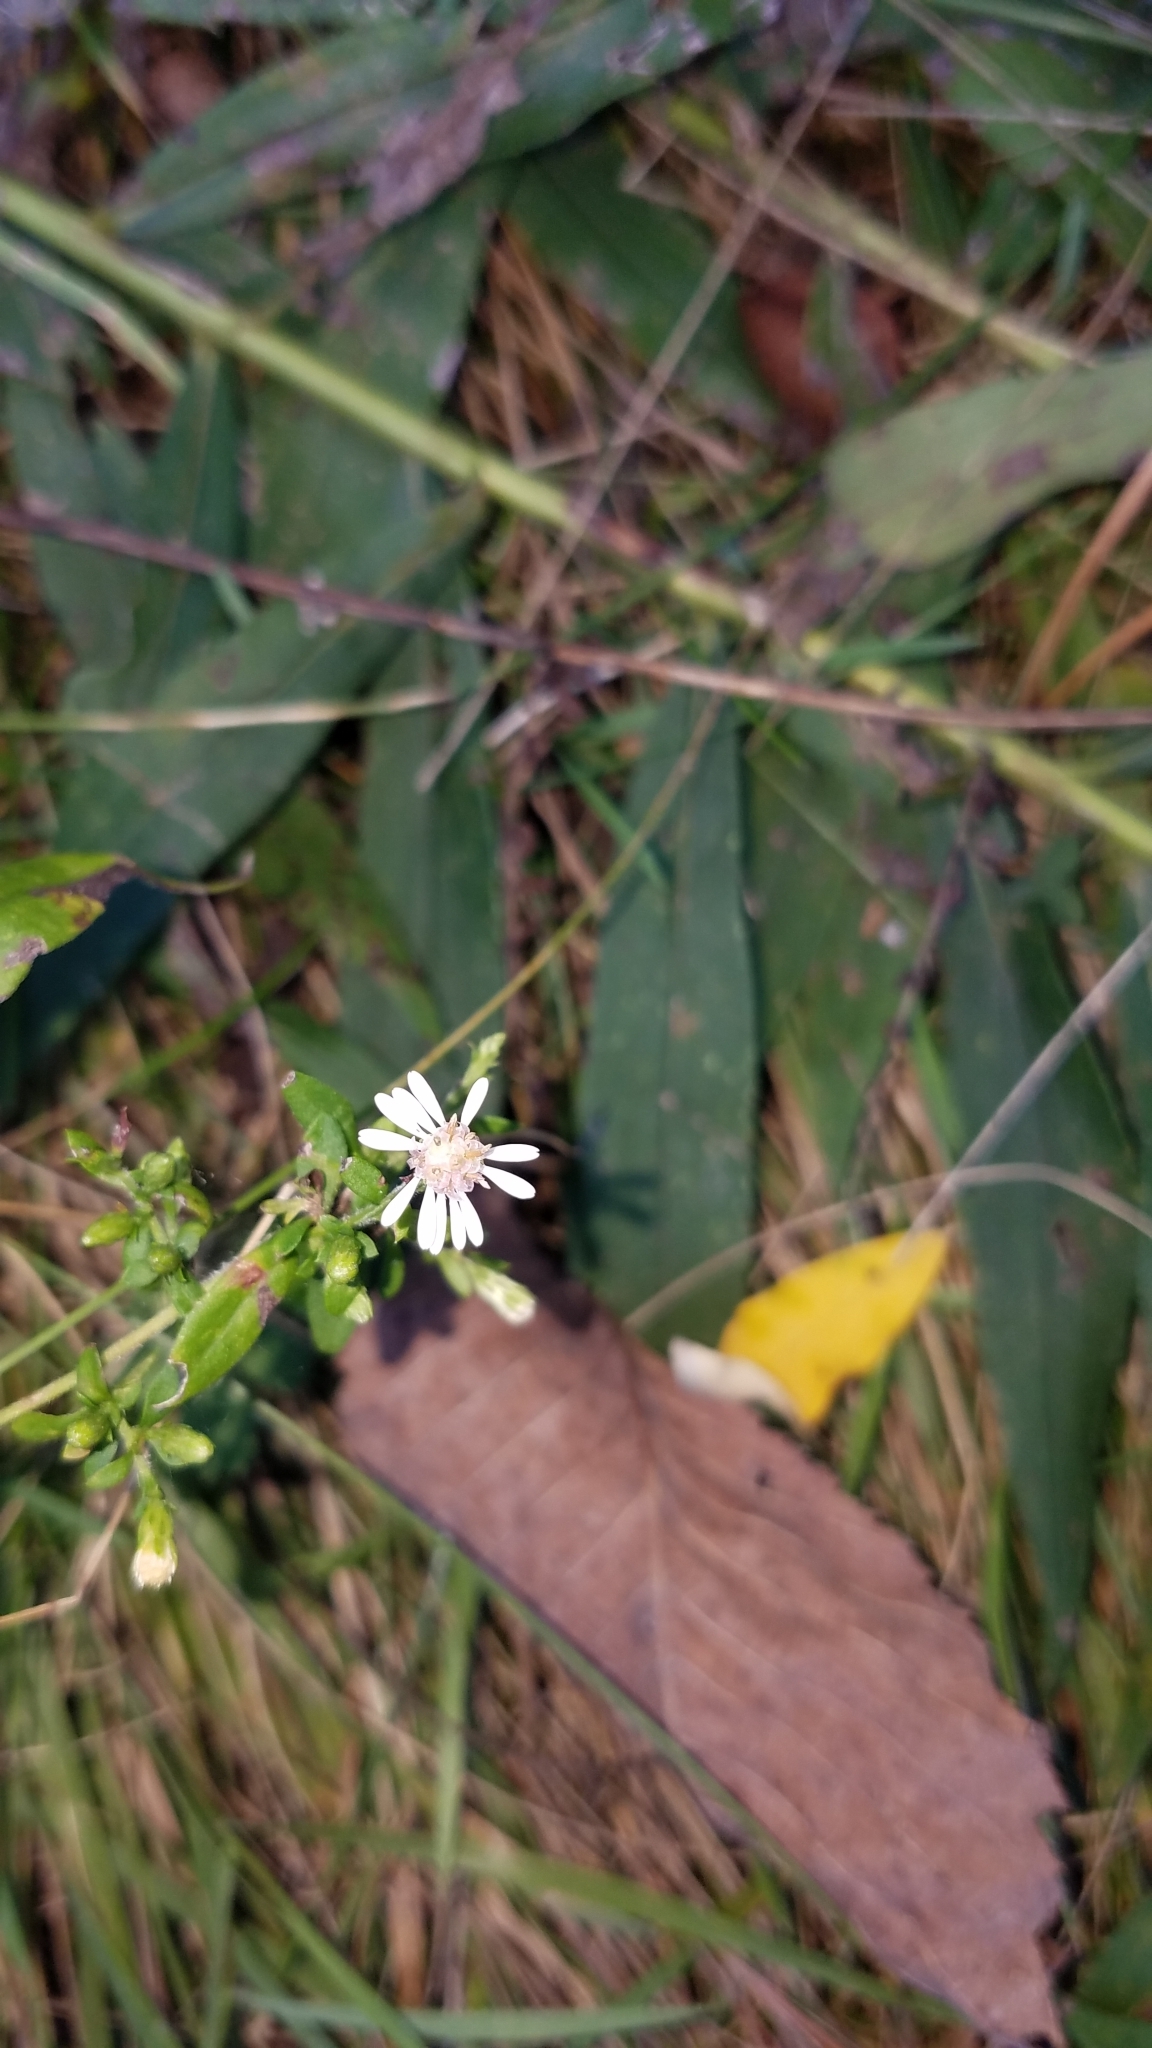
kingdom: Plantae
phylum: Tracheophyta
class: Magnoliopsida
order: Asterales
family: Asteraceae
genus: Symphyotrichum
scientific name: Symphyotrichum lateriflorum
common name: Calico aster
